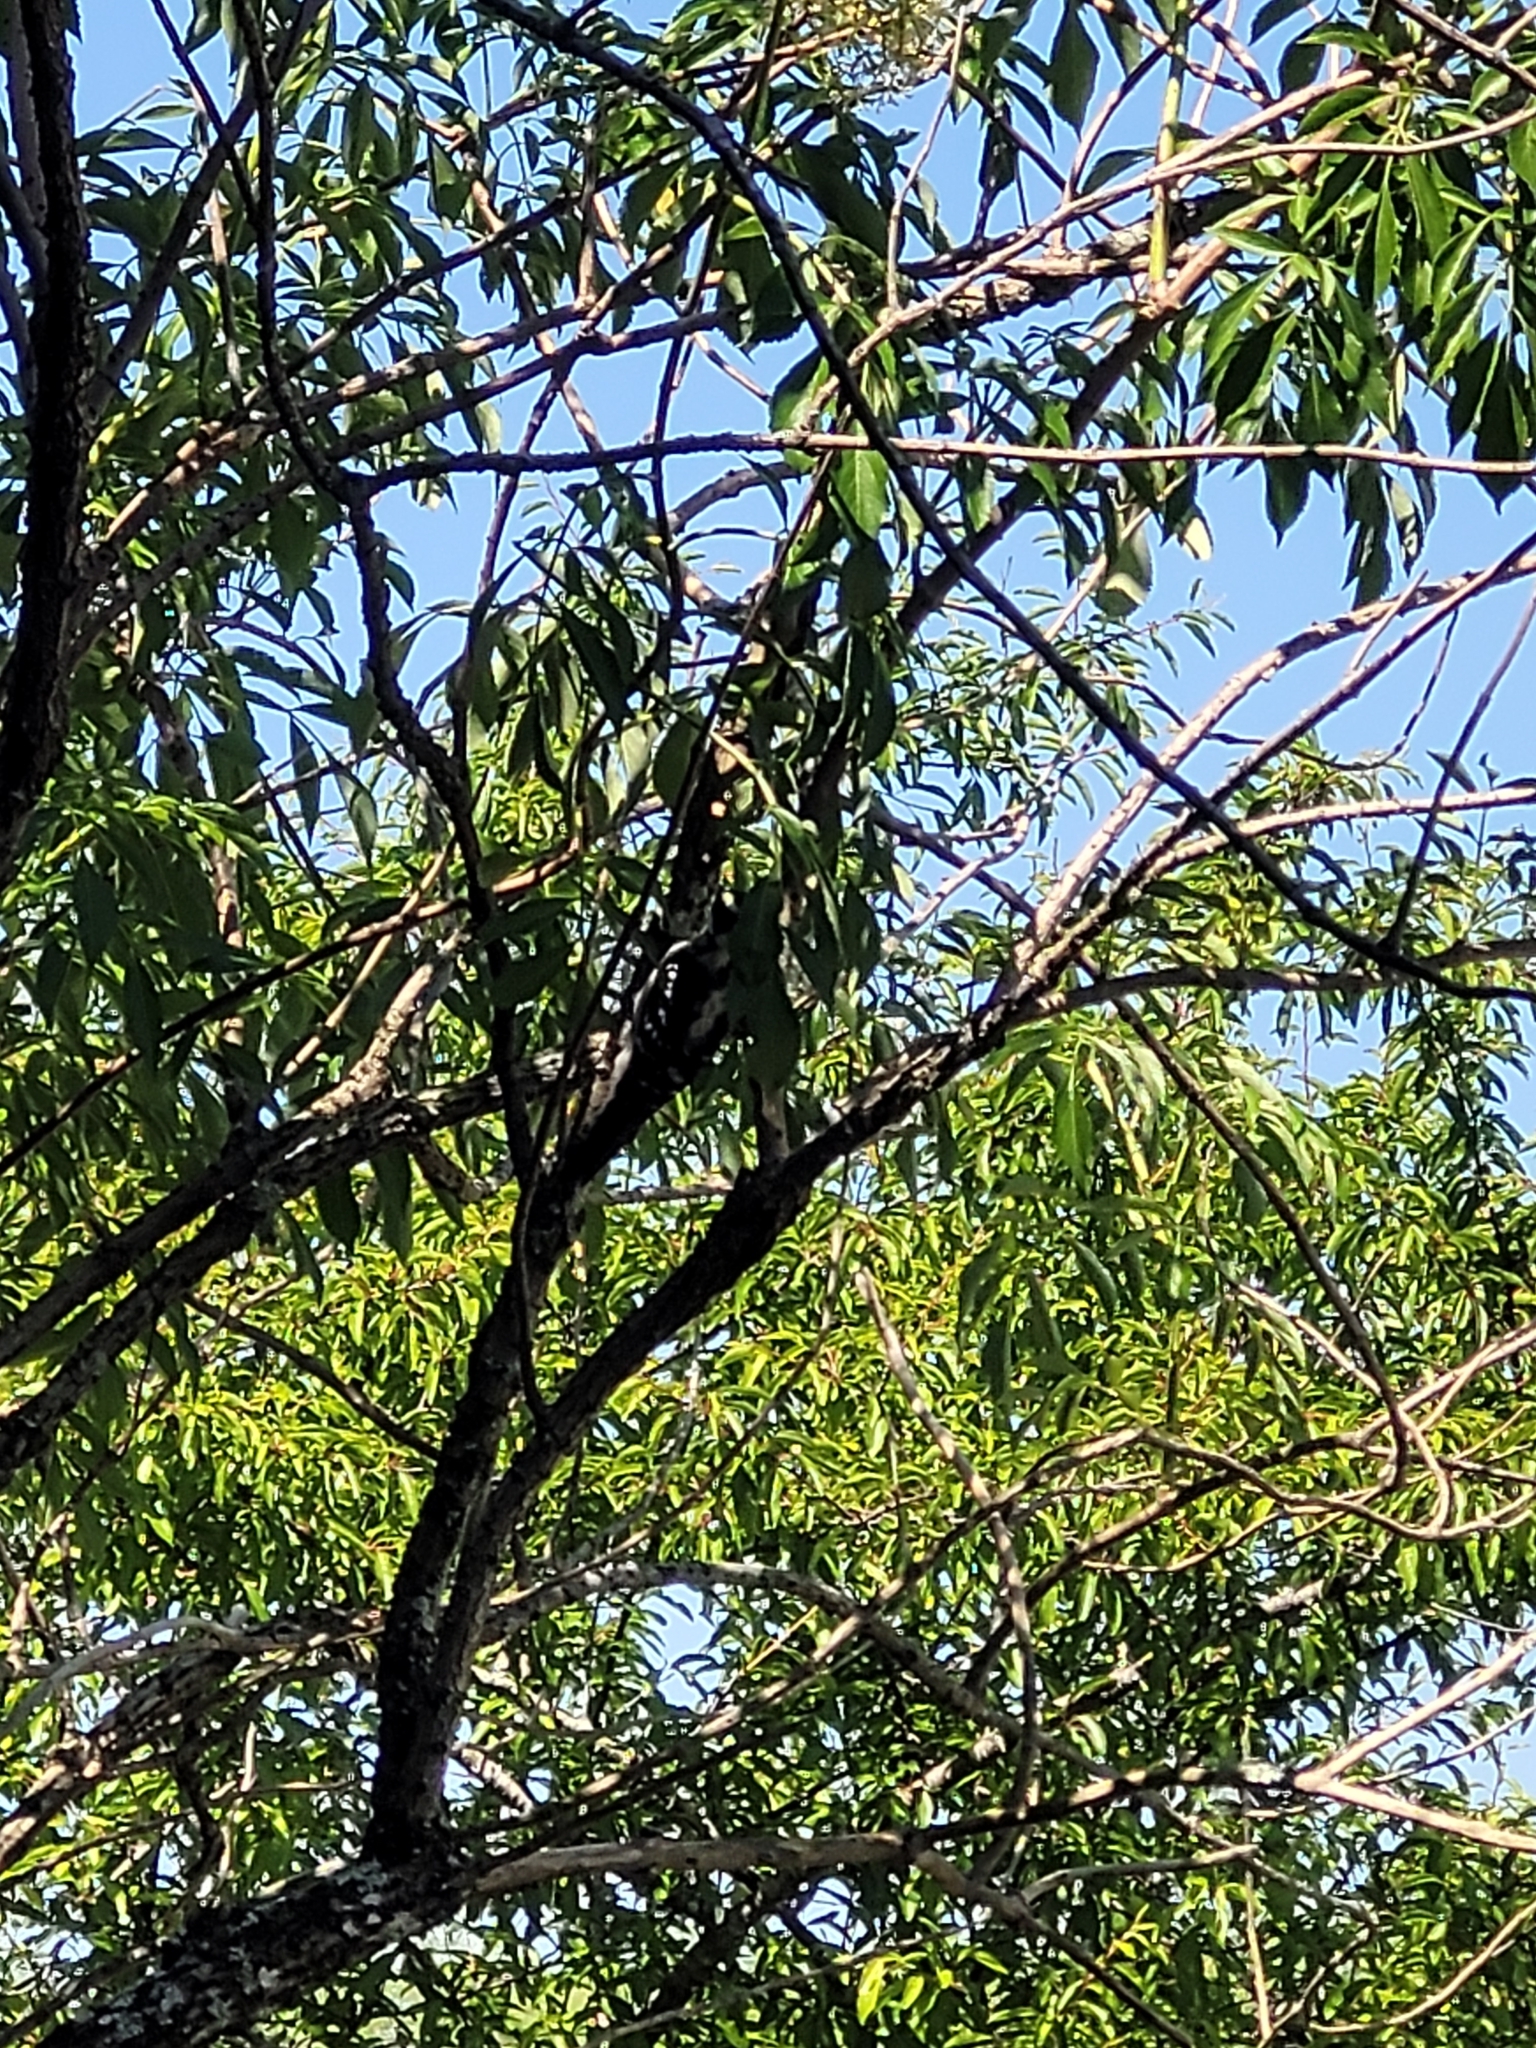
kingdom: Animalia
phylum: Chordata
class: Aves
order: Piciformes
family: Picidae
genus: Dryobates
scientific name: Dryobates pubescens
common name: Downy woodpecker
